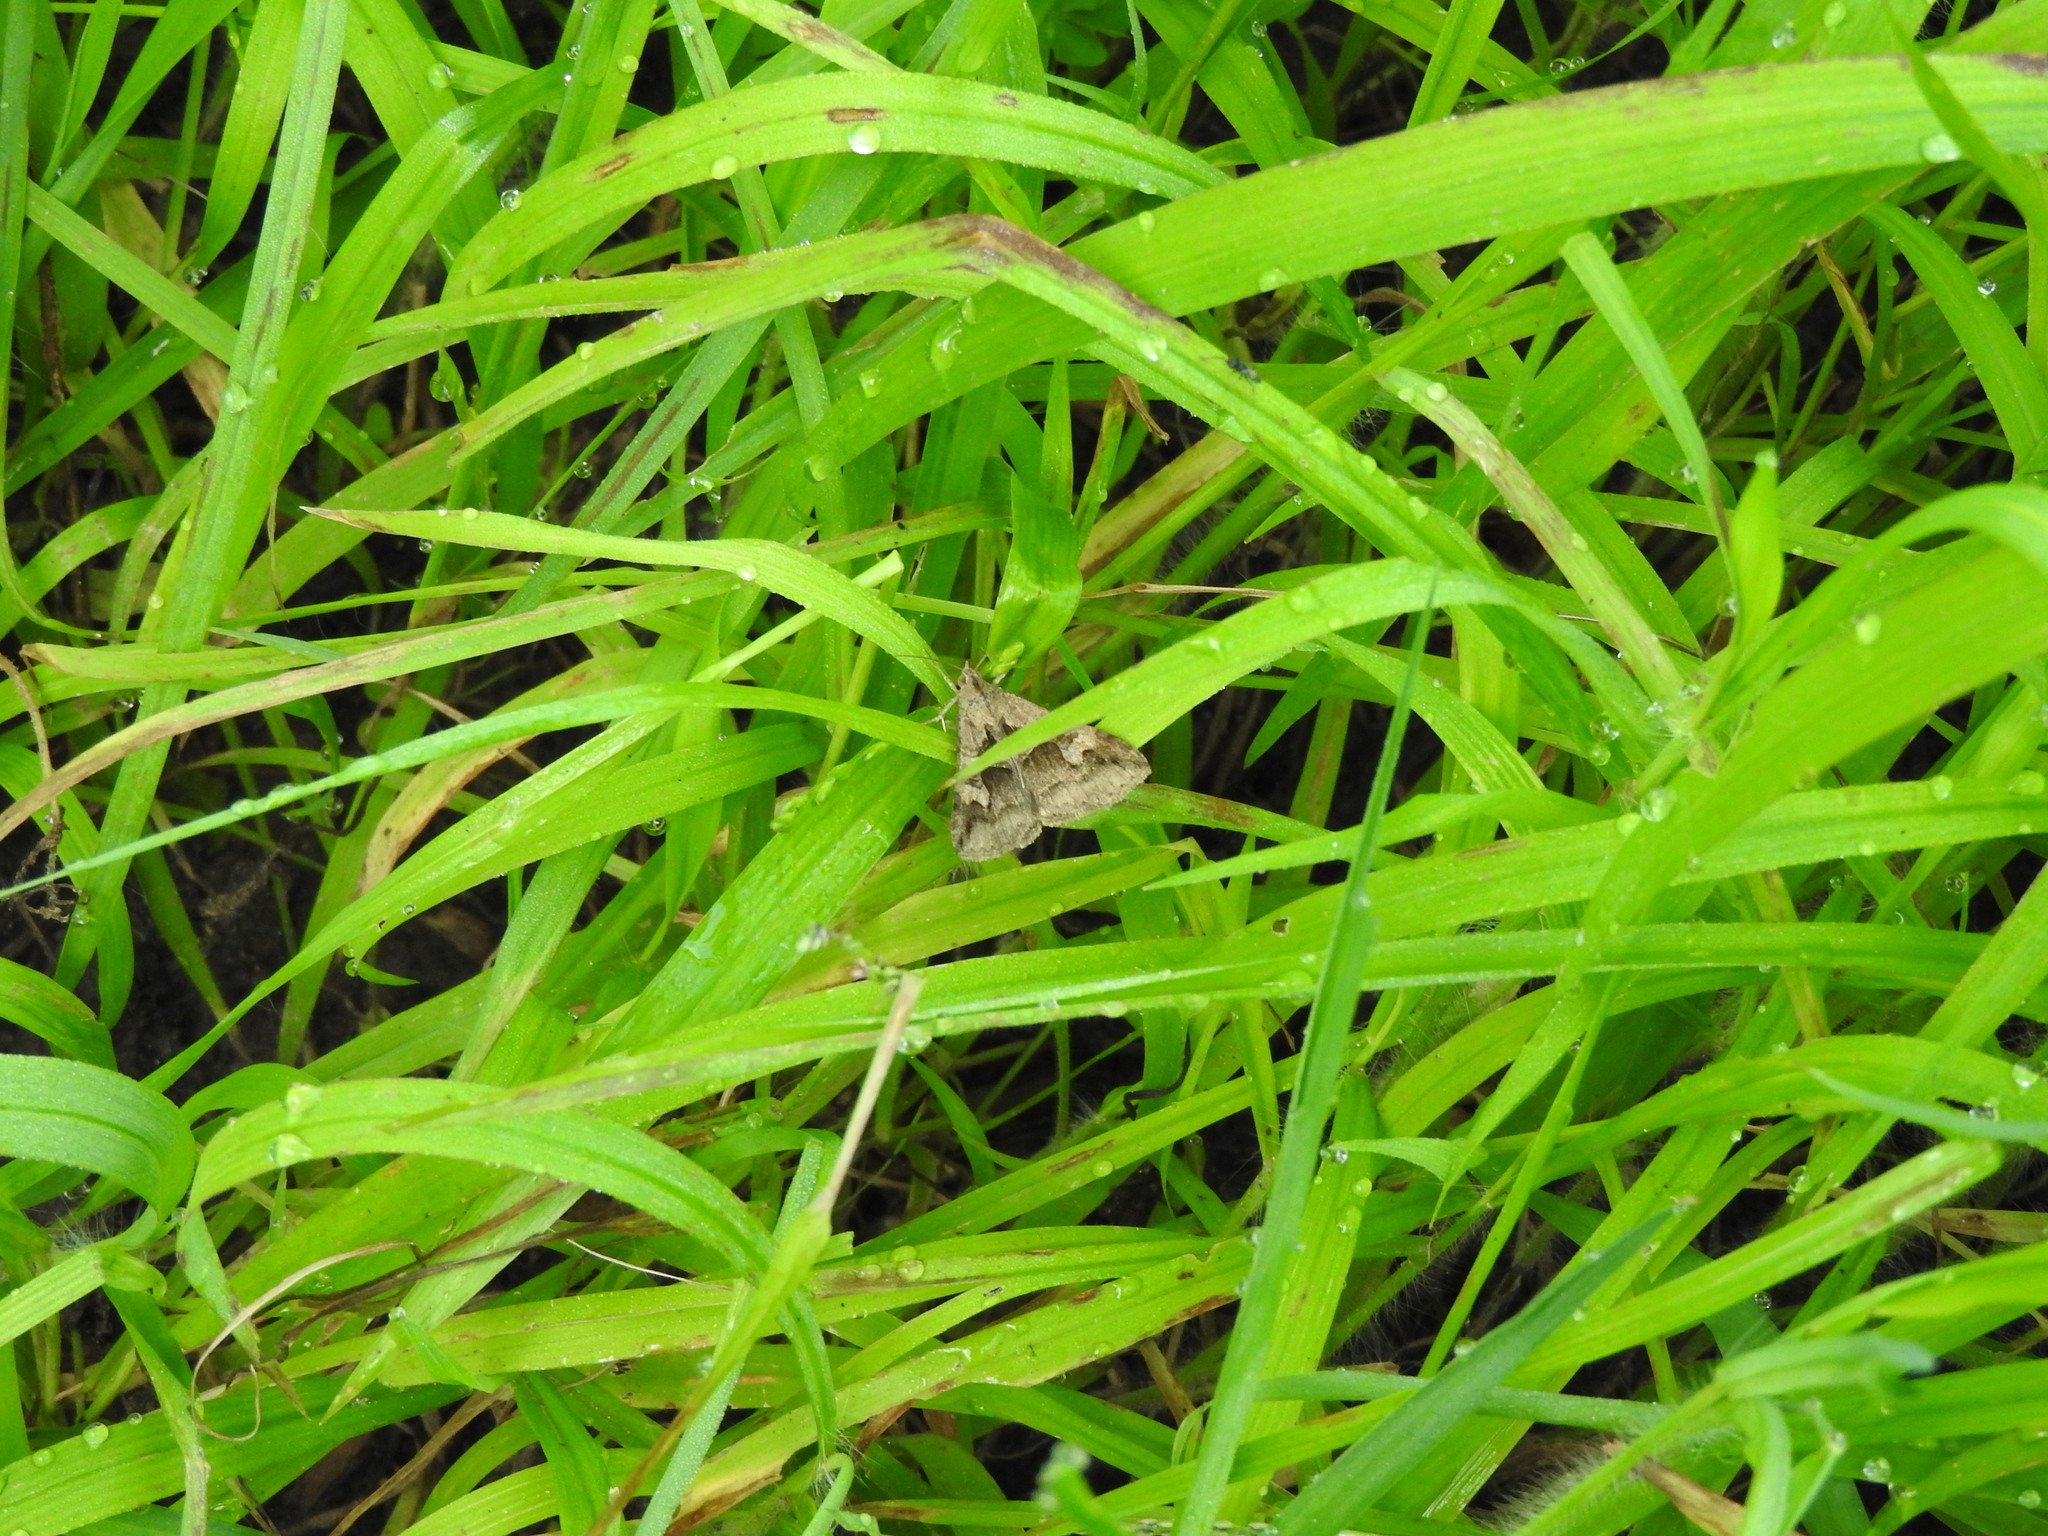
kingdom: Animalia
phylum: Arthropoda
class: Insecta
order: Lepidoptera
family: Erebidae
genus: Melipotis
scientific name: Melipotis cellaris
